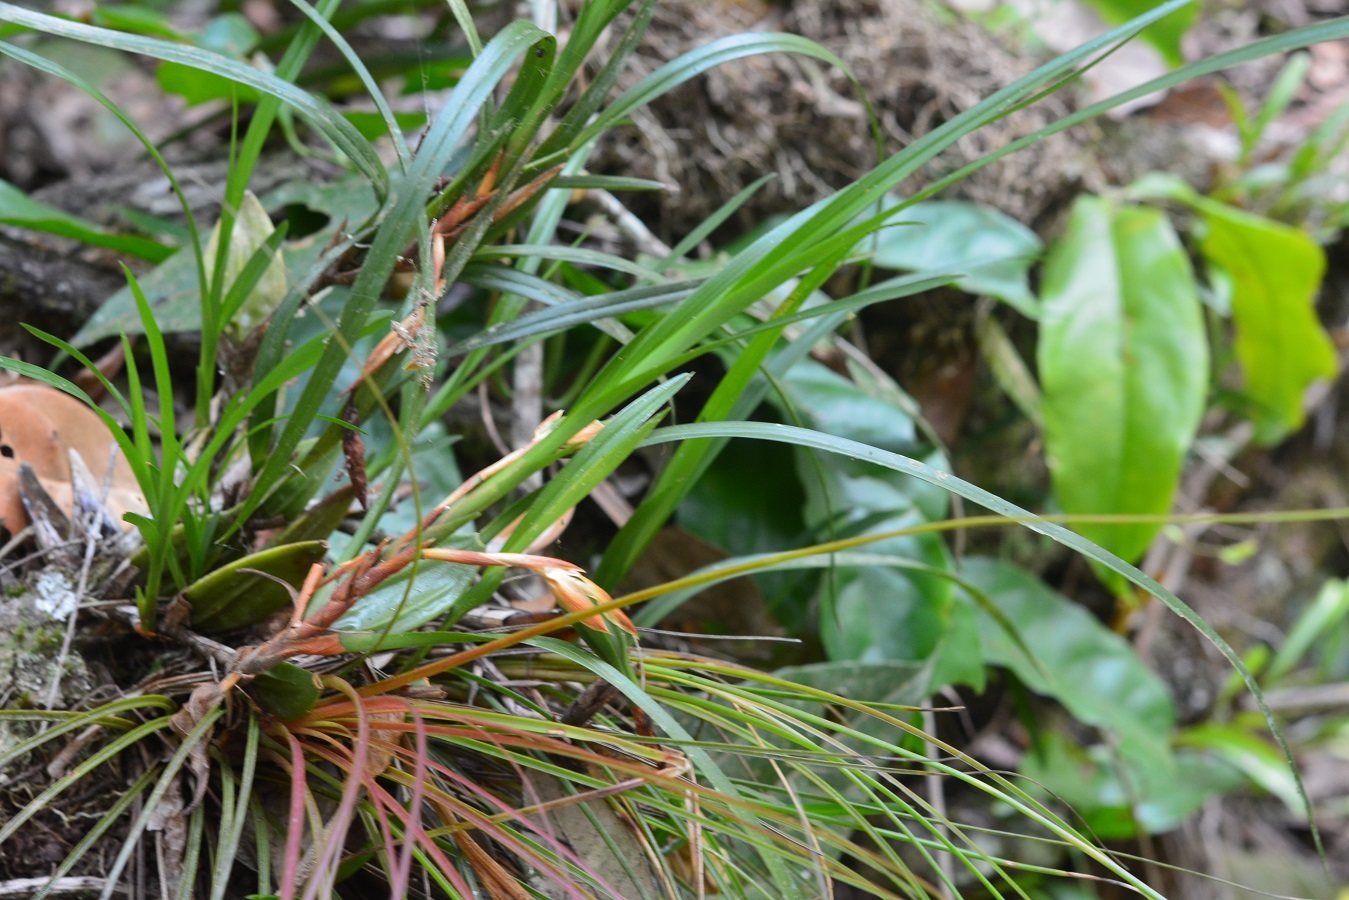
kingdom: Plantae
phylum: Tracheophyta
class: Liliopsida
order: Asparagales
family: Orchidaceae
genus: Maxillaria
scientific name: Maxillaria alba
